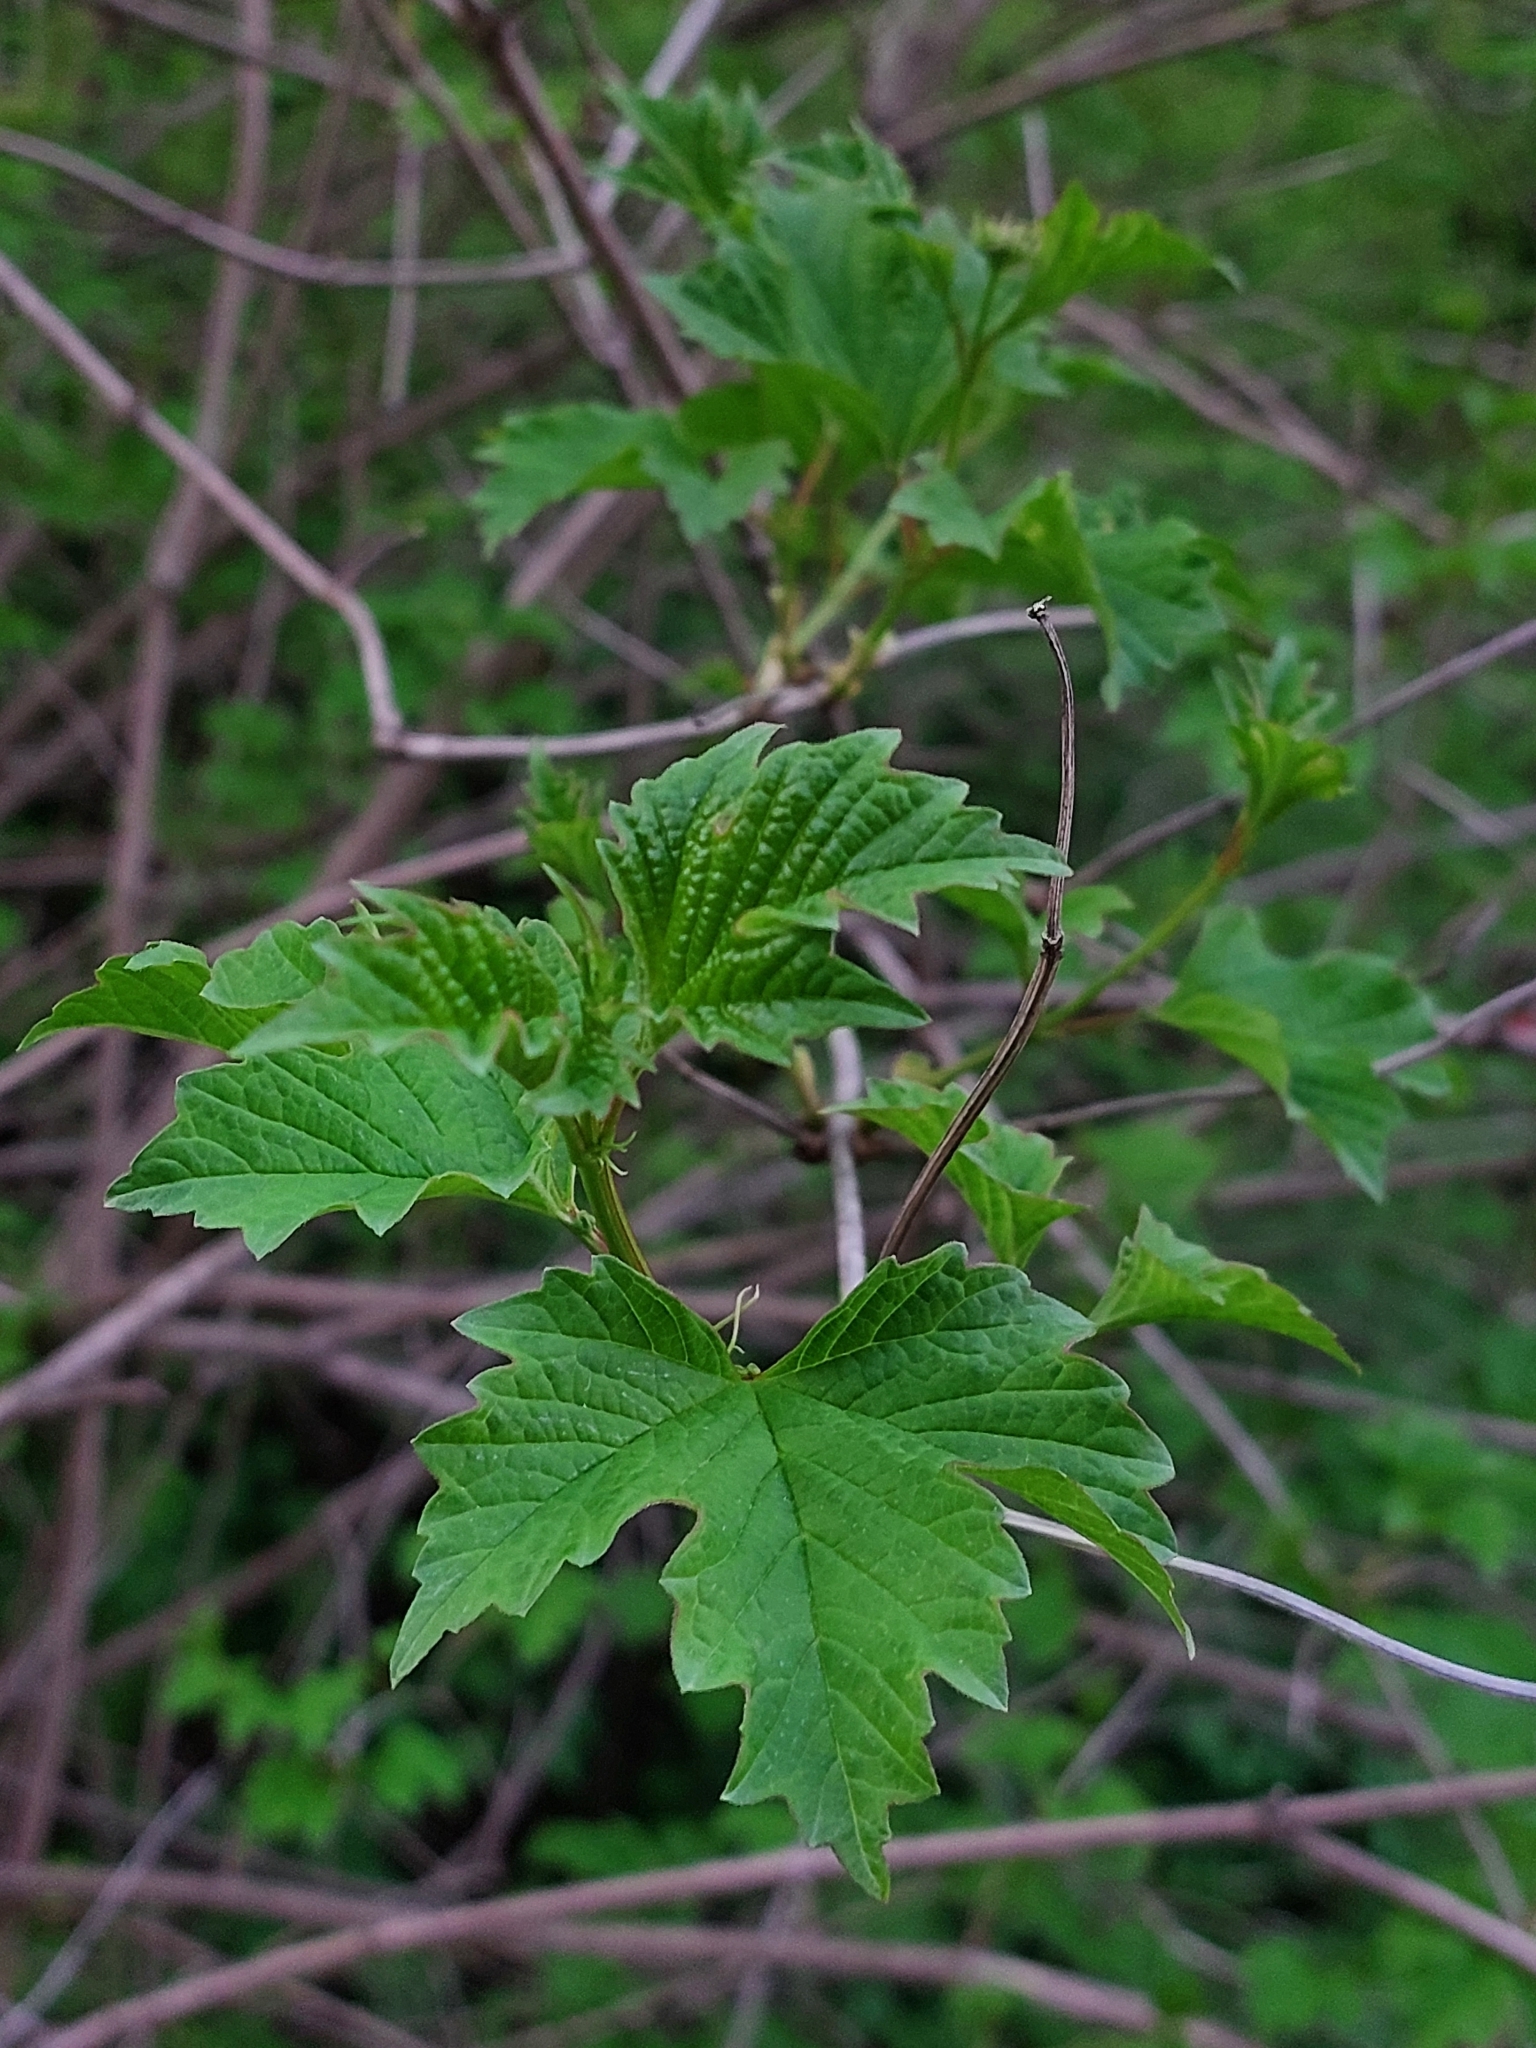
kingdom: Plantae
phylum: Tracheophyta
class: Magnoliopsida
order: Dipsacales
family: Viburnaceae
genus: Viburnum
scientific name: Viburnum opulus
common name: Guelder-rose
